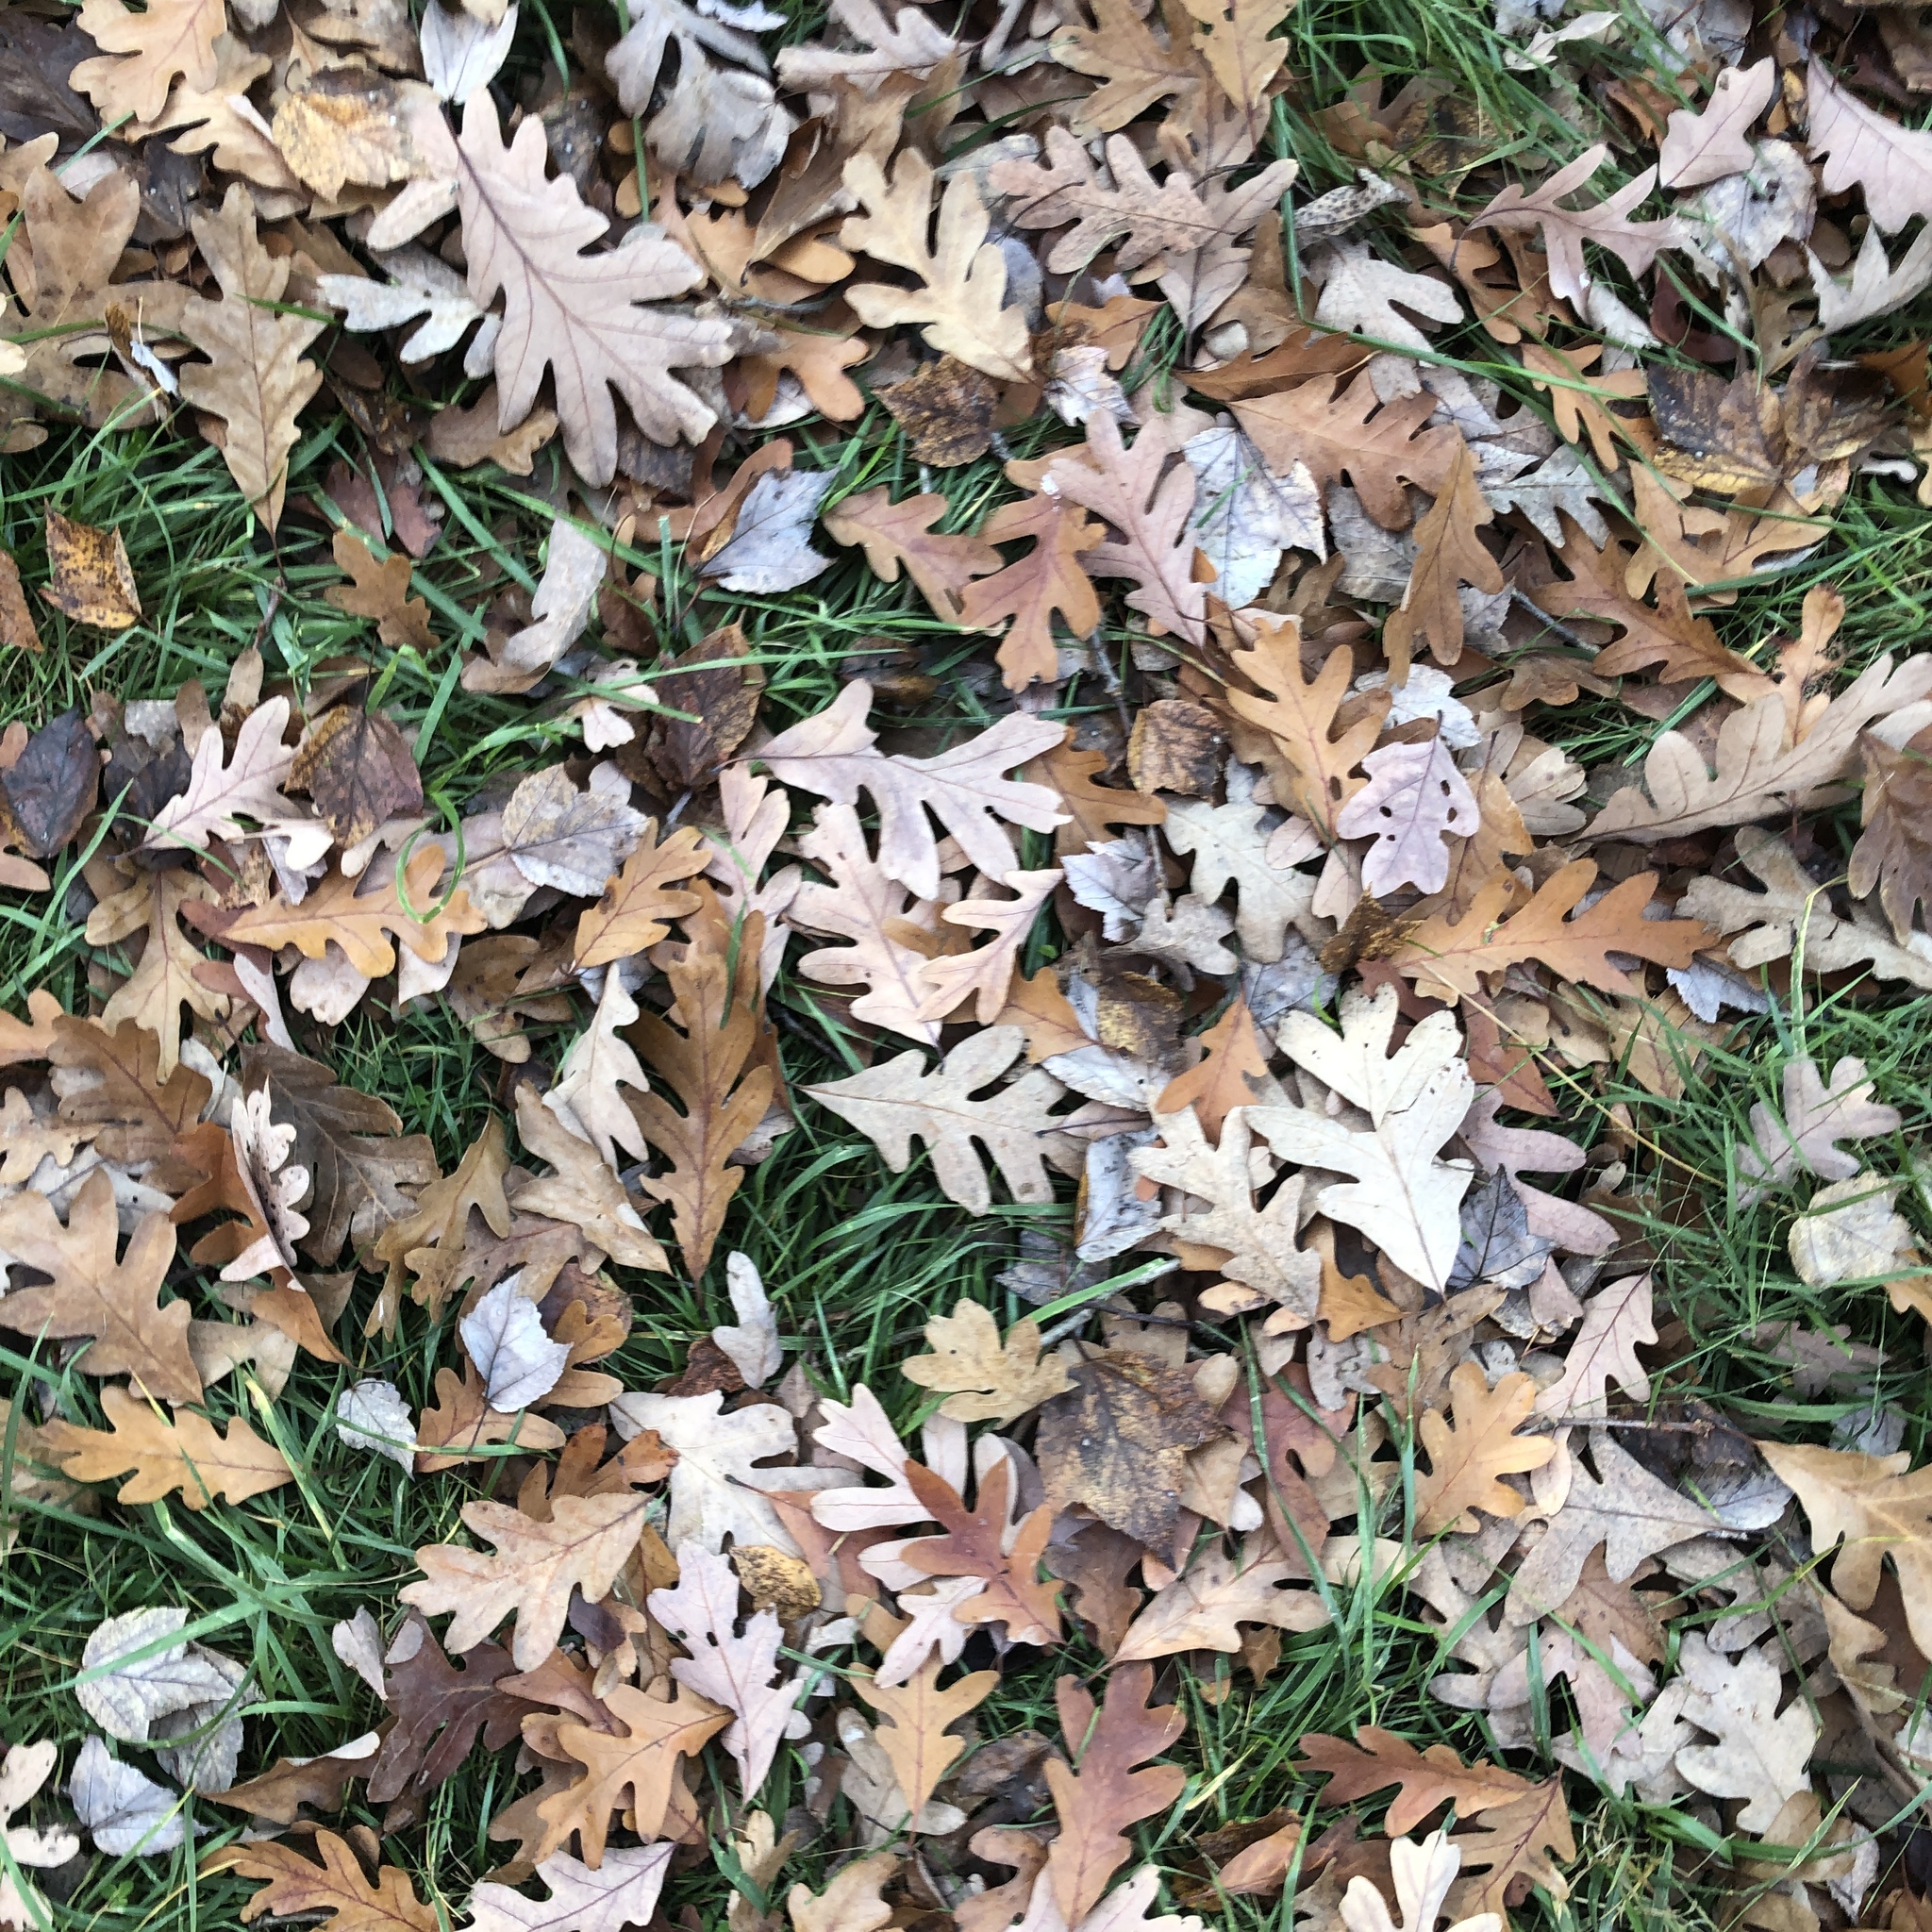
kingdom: Plantae
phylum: Tracheophyta
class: Magnoliopsida
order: Fagales
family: Fagaceae
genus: Quercus
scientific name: Quercus alba
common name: White oak
